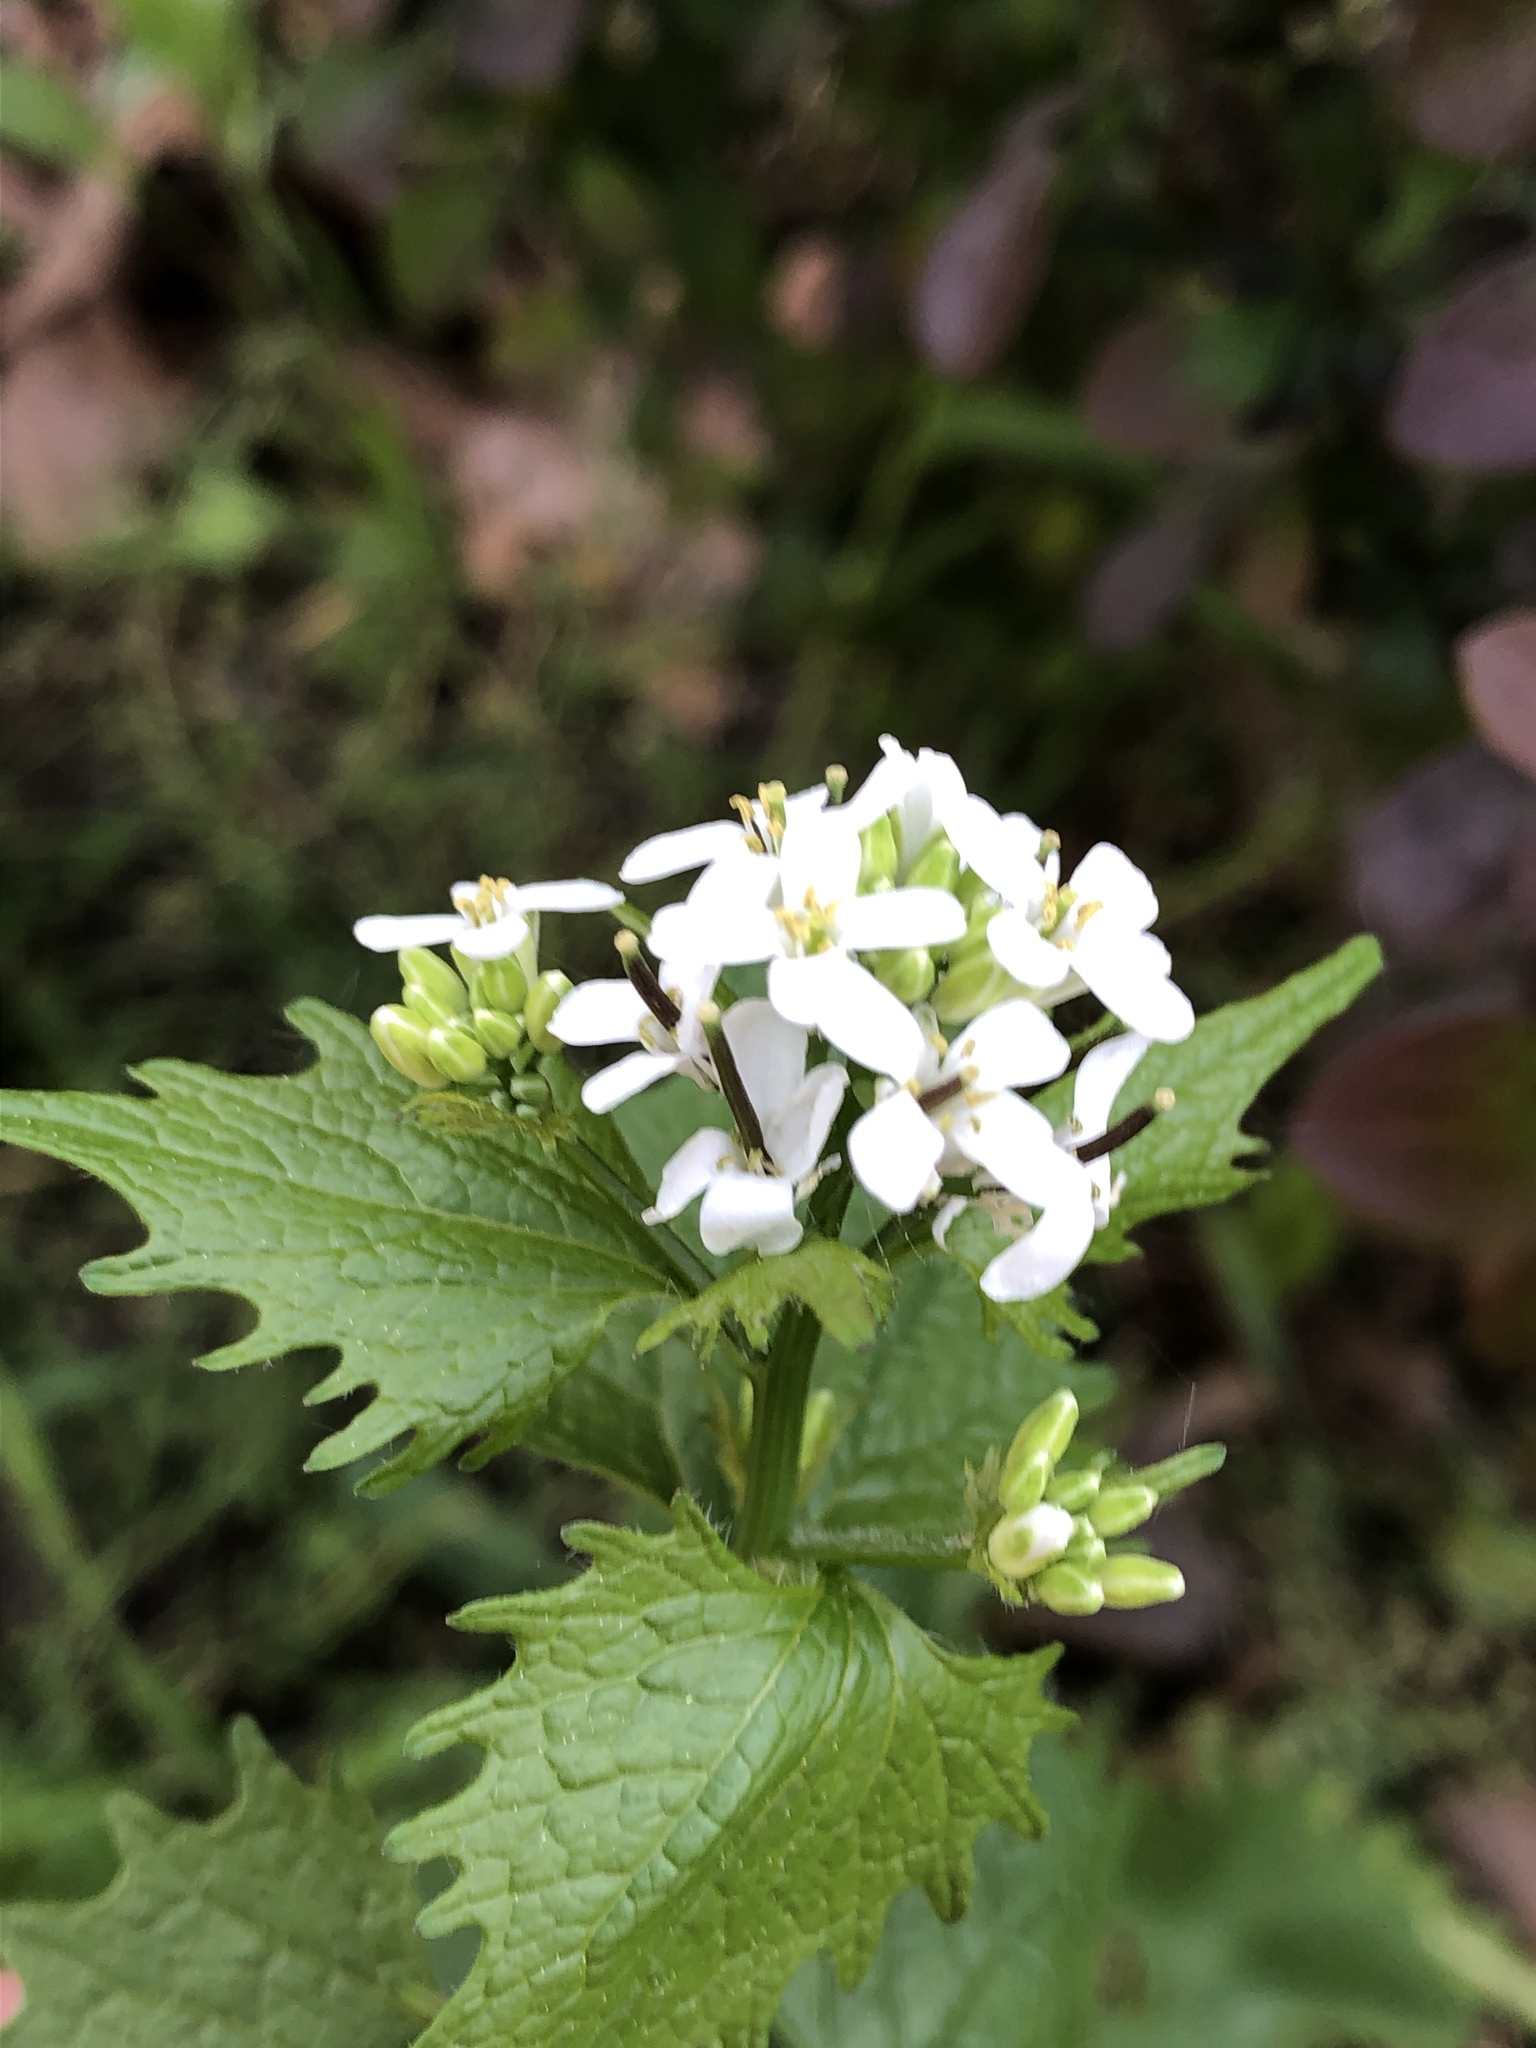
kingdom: Plantae
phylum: Tracheophyta
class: Magnoliopsida
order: Brassicales
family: Brassicaceae
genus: Alliaria
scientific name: Alliaria petiolata
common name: Garlic mustard
